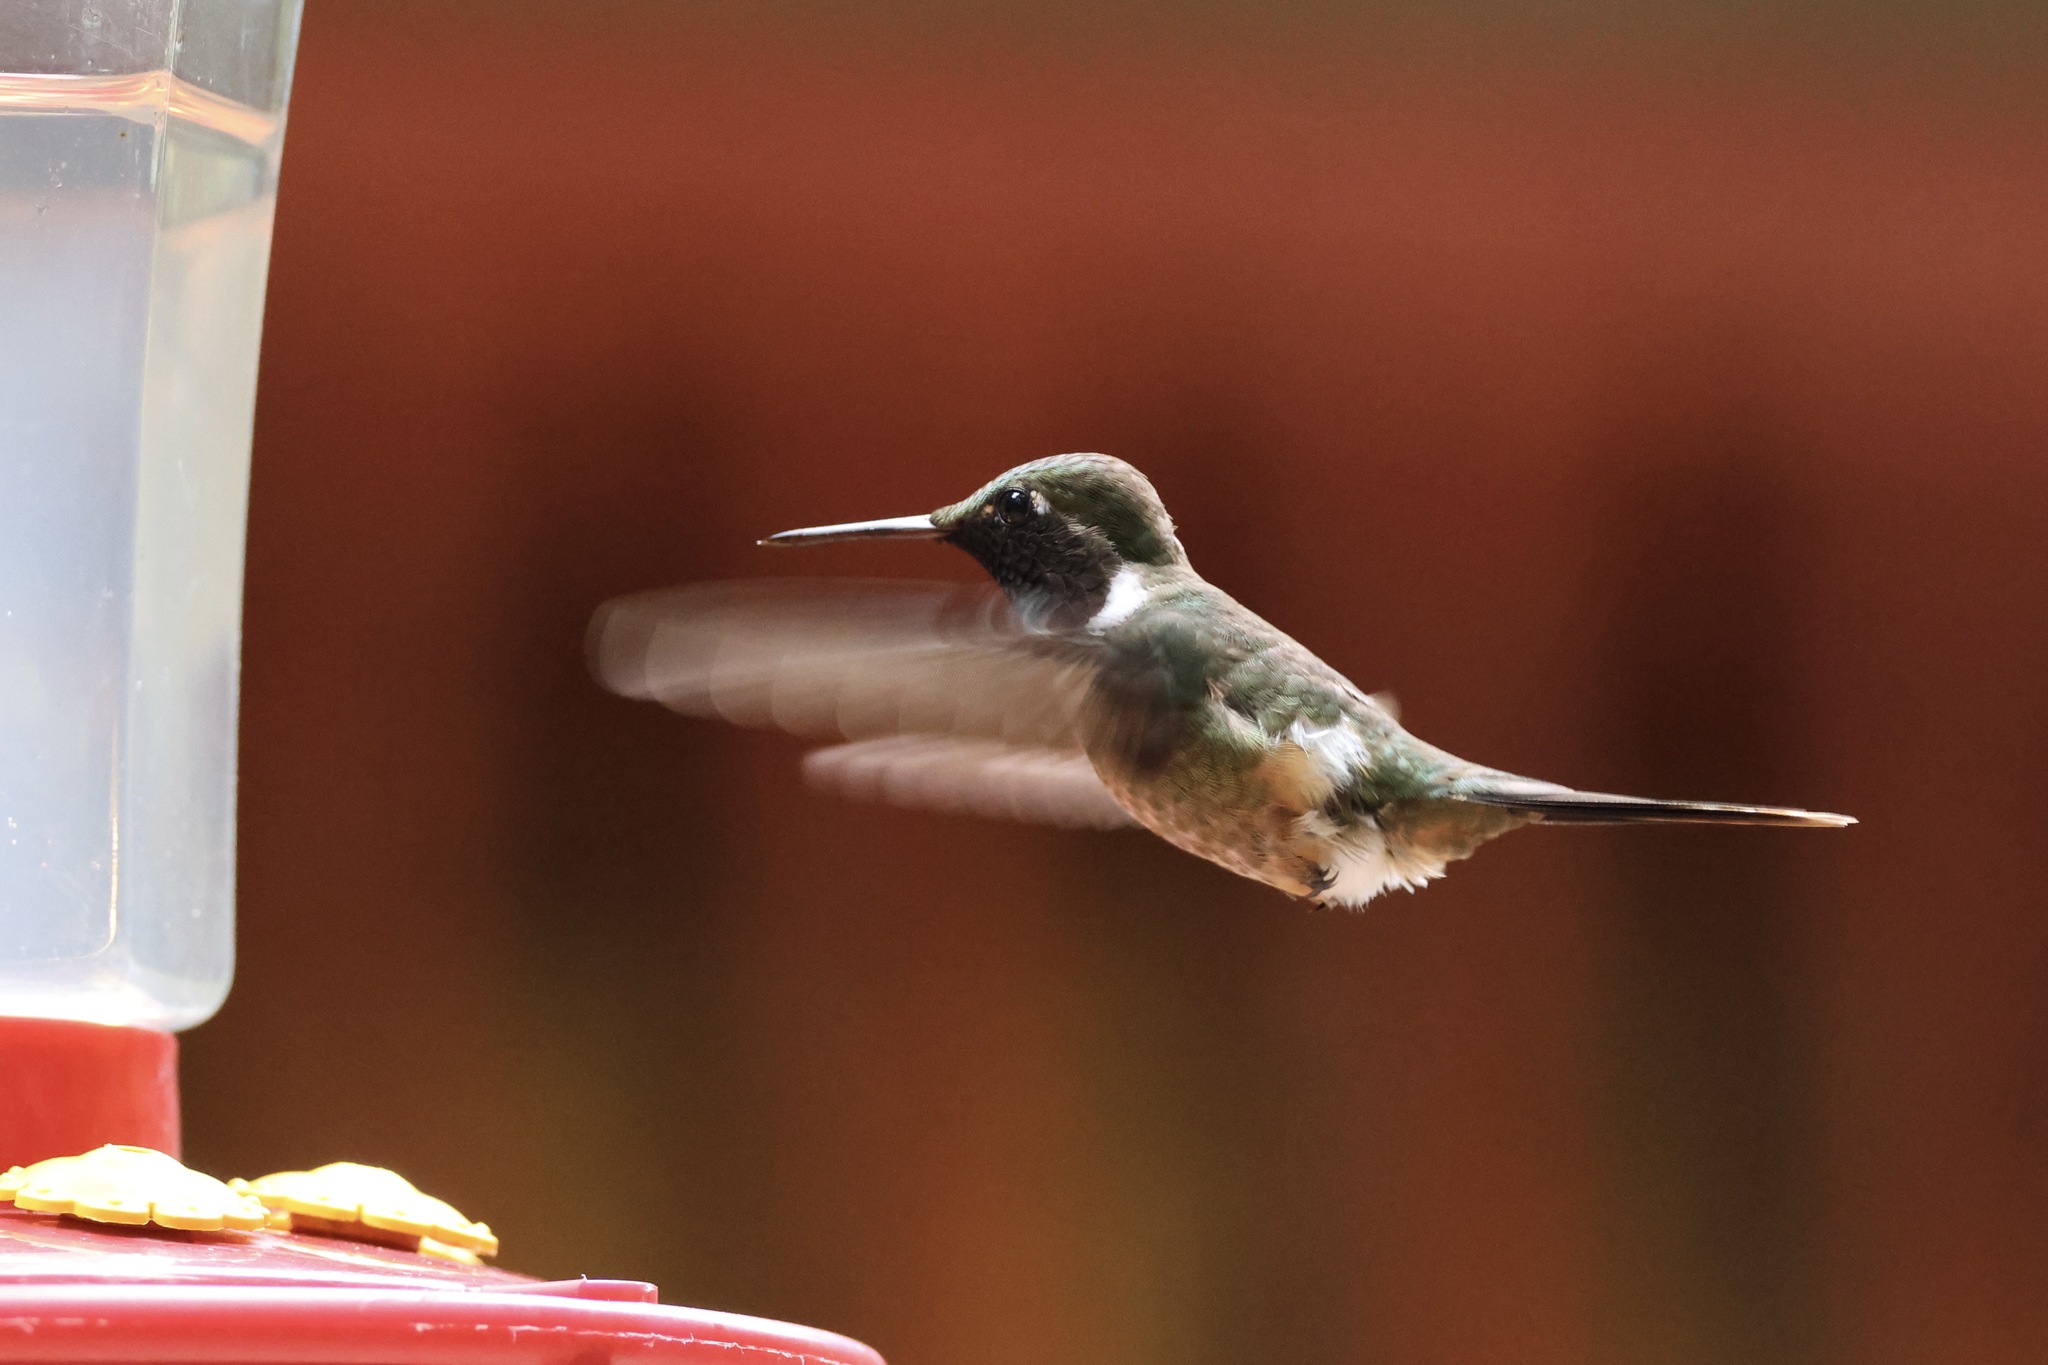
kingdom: Animalia
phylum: Chordata
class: Aves
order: Apodiformes
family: Trochilidae
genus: Calliphlox
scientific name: Calliphlox bryantae
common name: Magenta-throated woodstar
